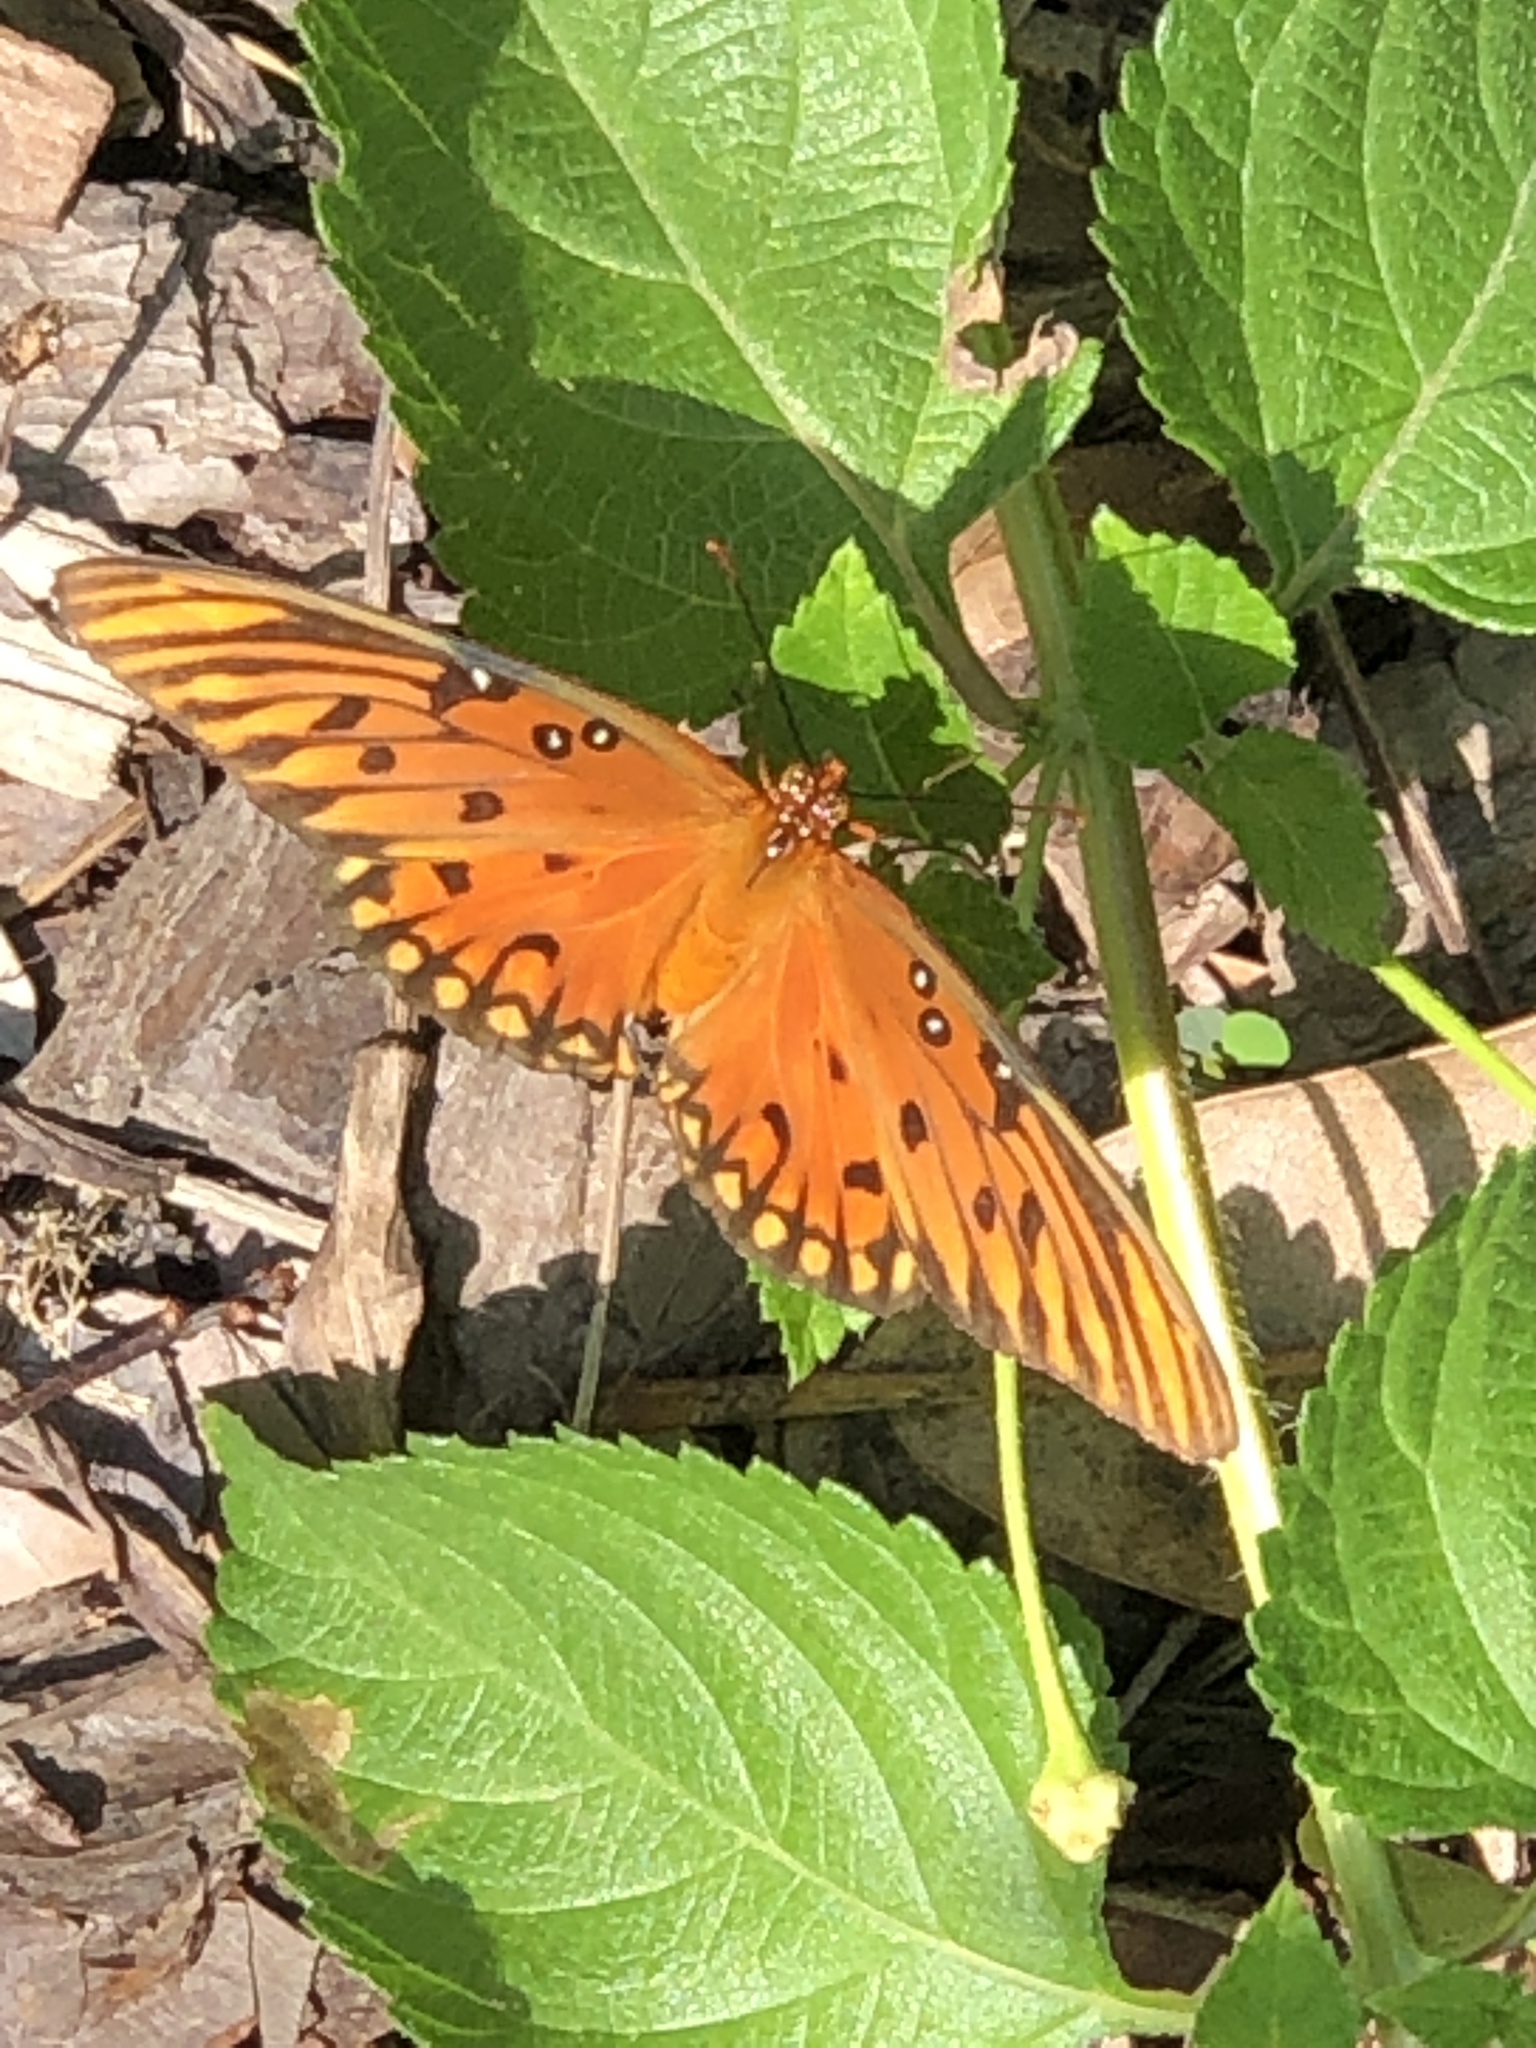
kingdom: Animalia
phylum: Arthropoda
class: Insecta
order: Lepidoptera
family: Nymphalidae
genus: Dione
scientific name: Dione vanillae
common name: Gulf fritillary
